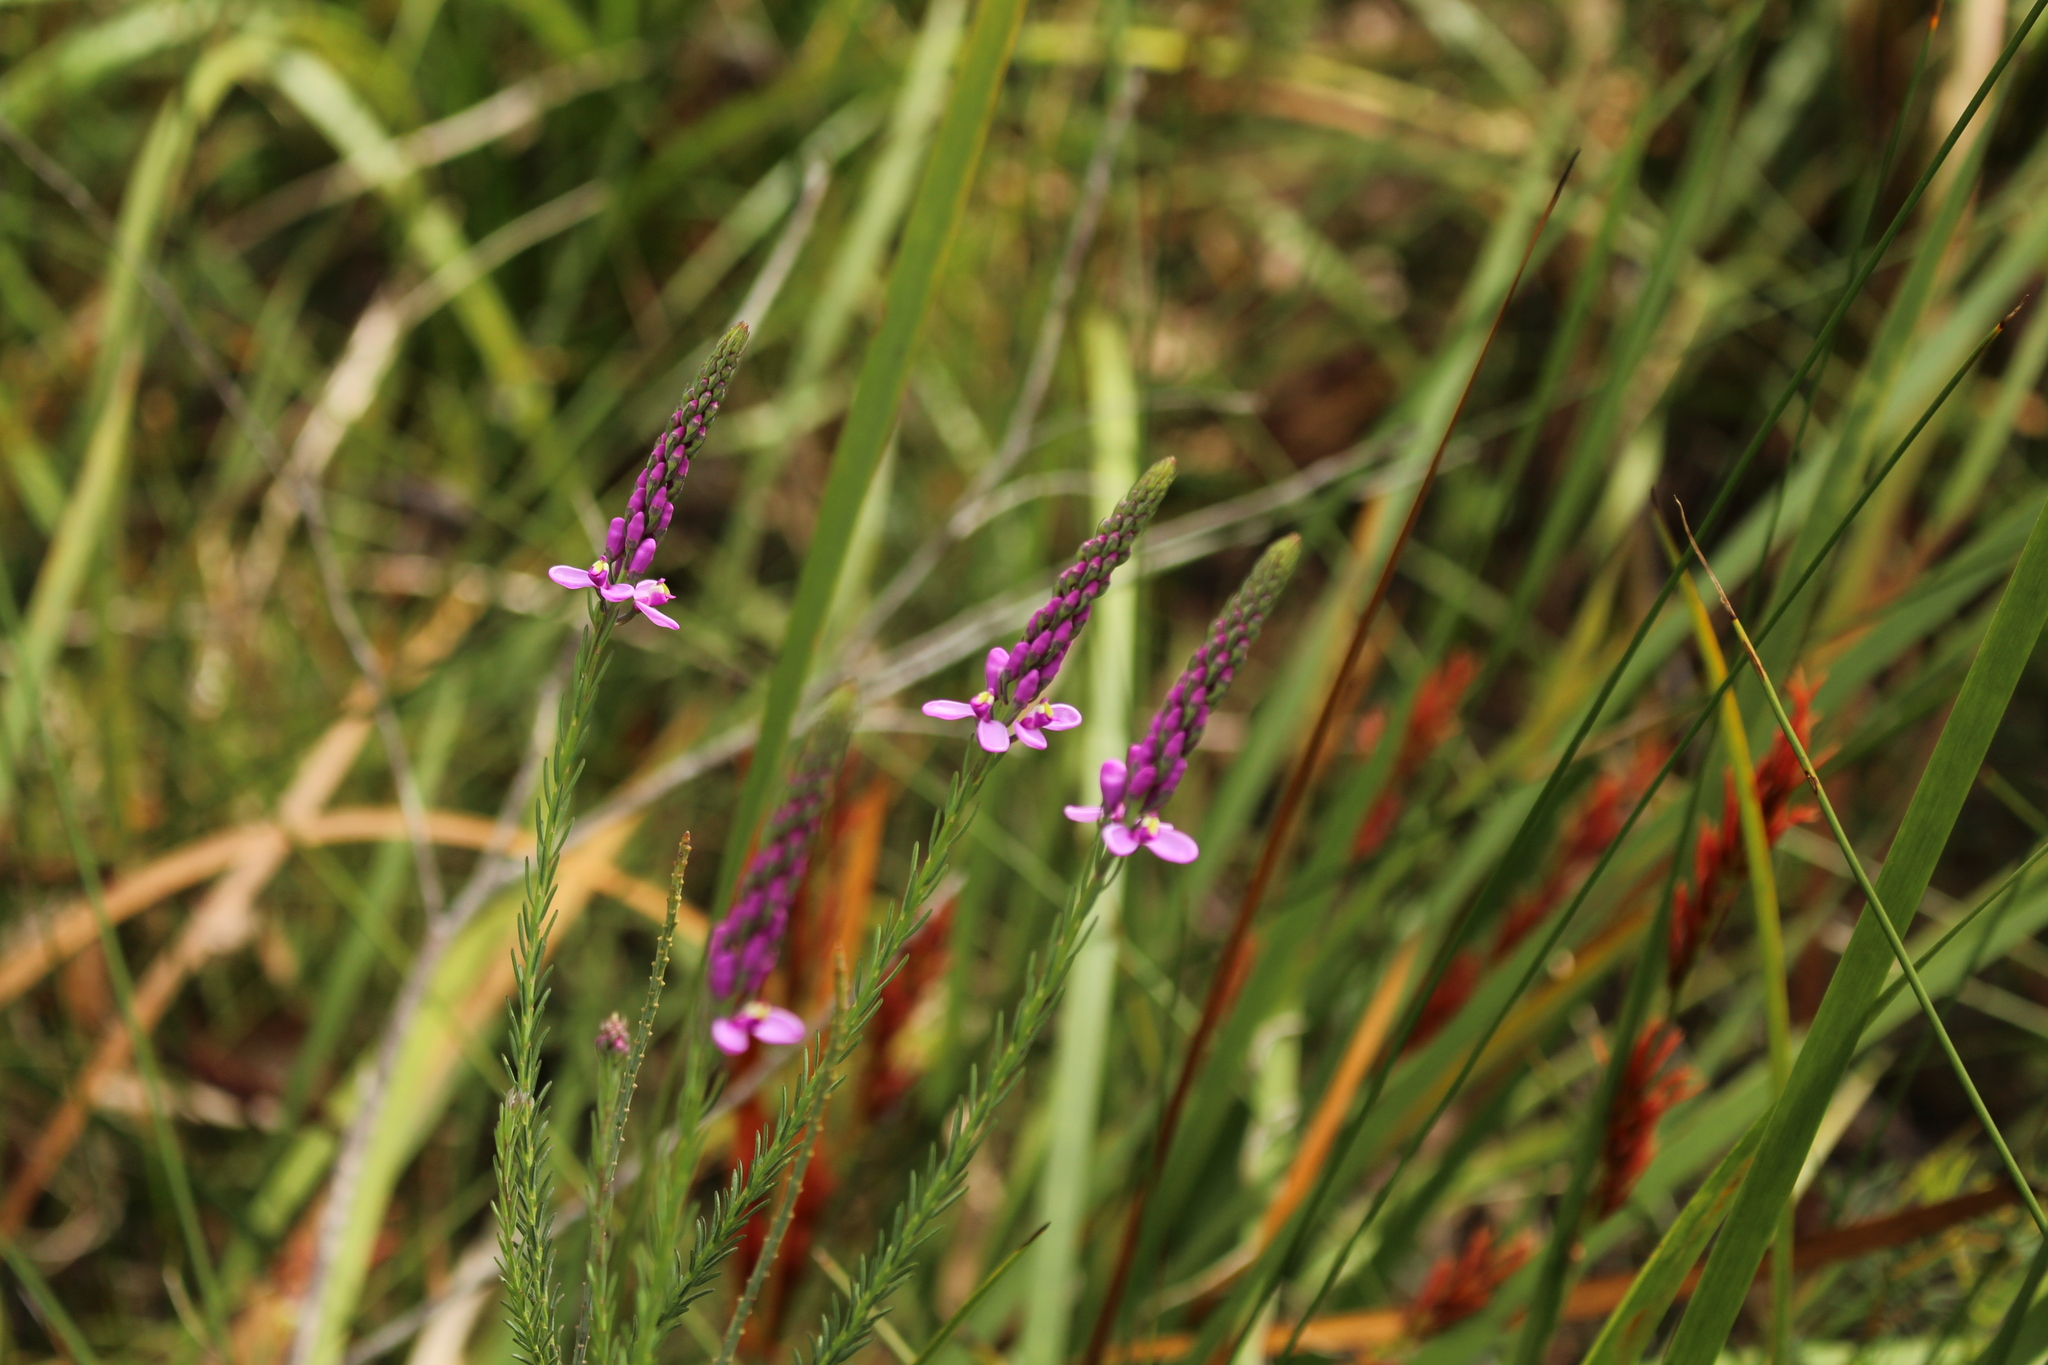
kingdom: Plantae
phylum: Tracheophyta
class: Magnoliopsida
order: Fabales
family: Polygalaceae
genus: Comesperma
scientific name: Comesperma virgatum
